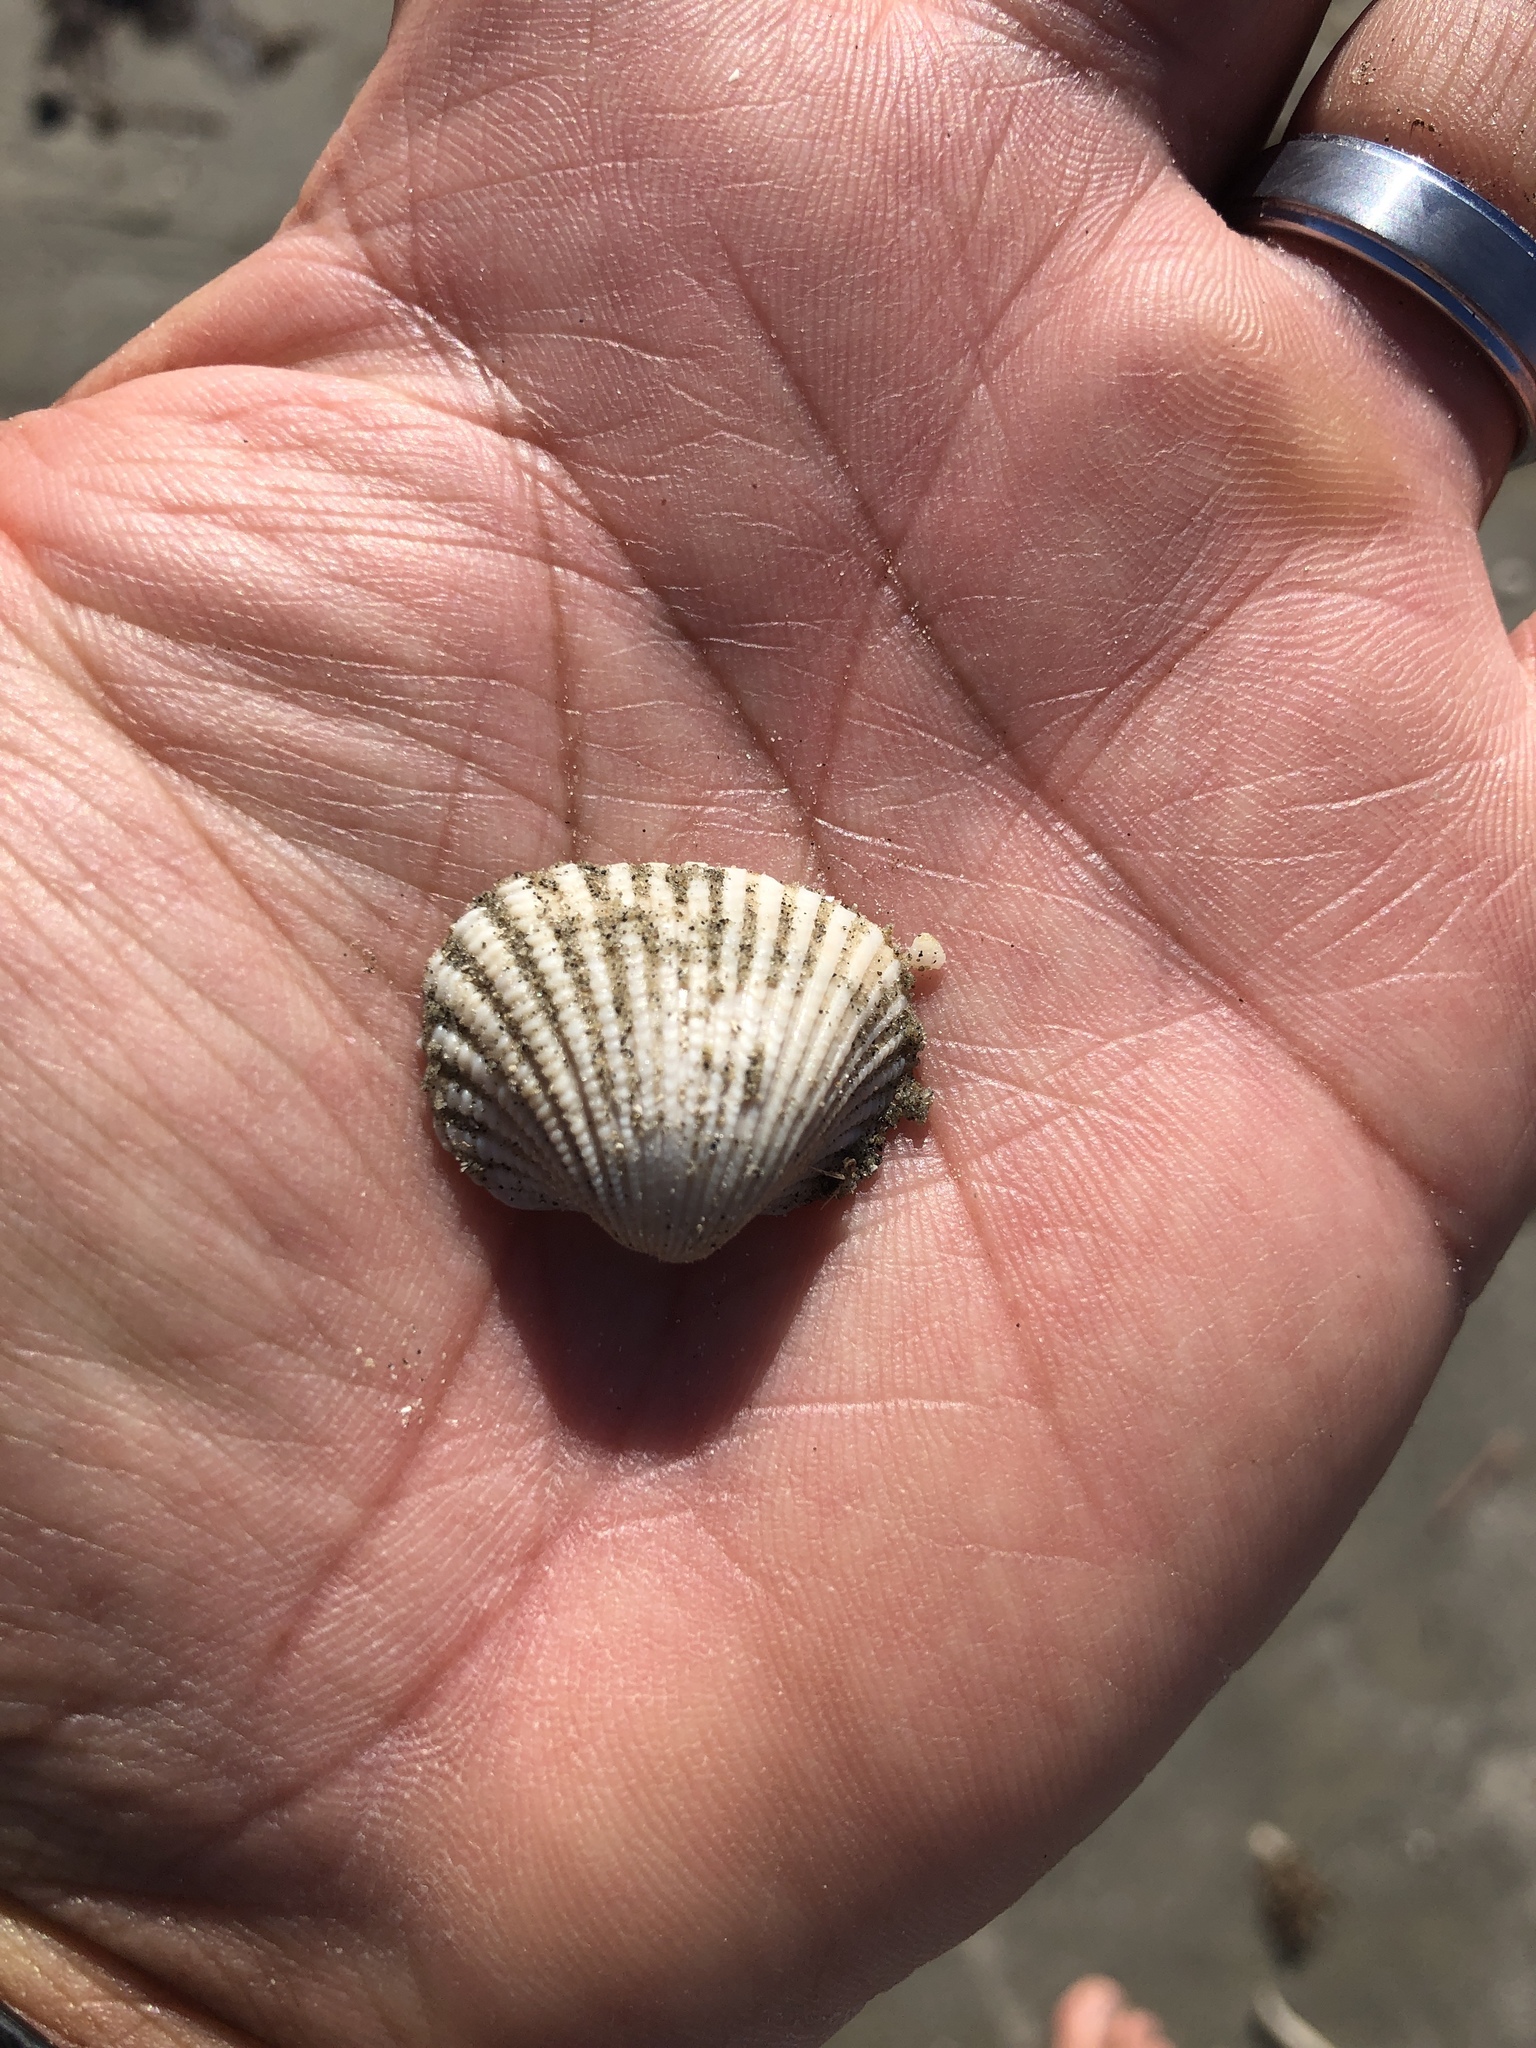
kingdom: Animalia
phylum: Mollusca
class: Bivalvia
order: Arcida
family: Arcidae
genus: Anadara
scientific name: Anadara brasiliana
